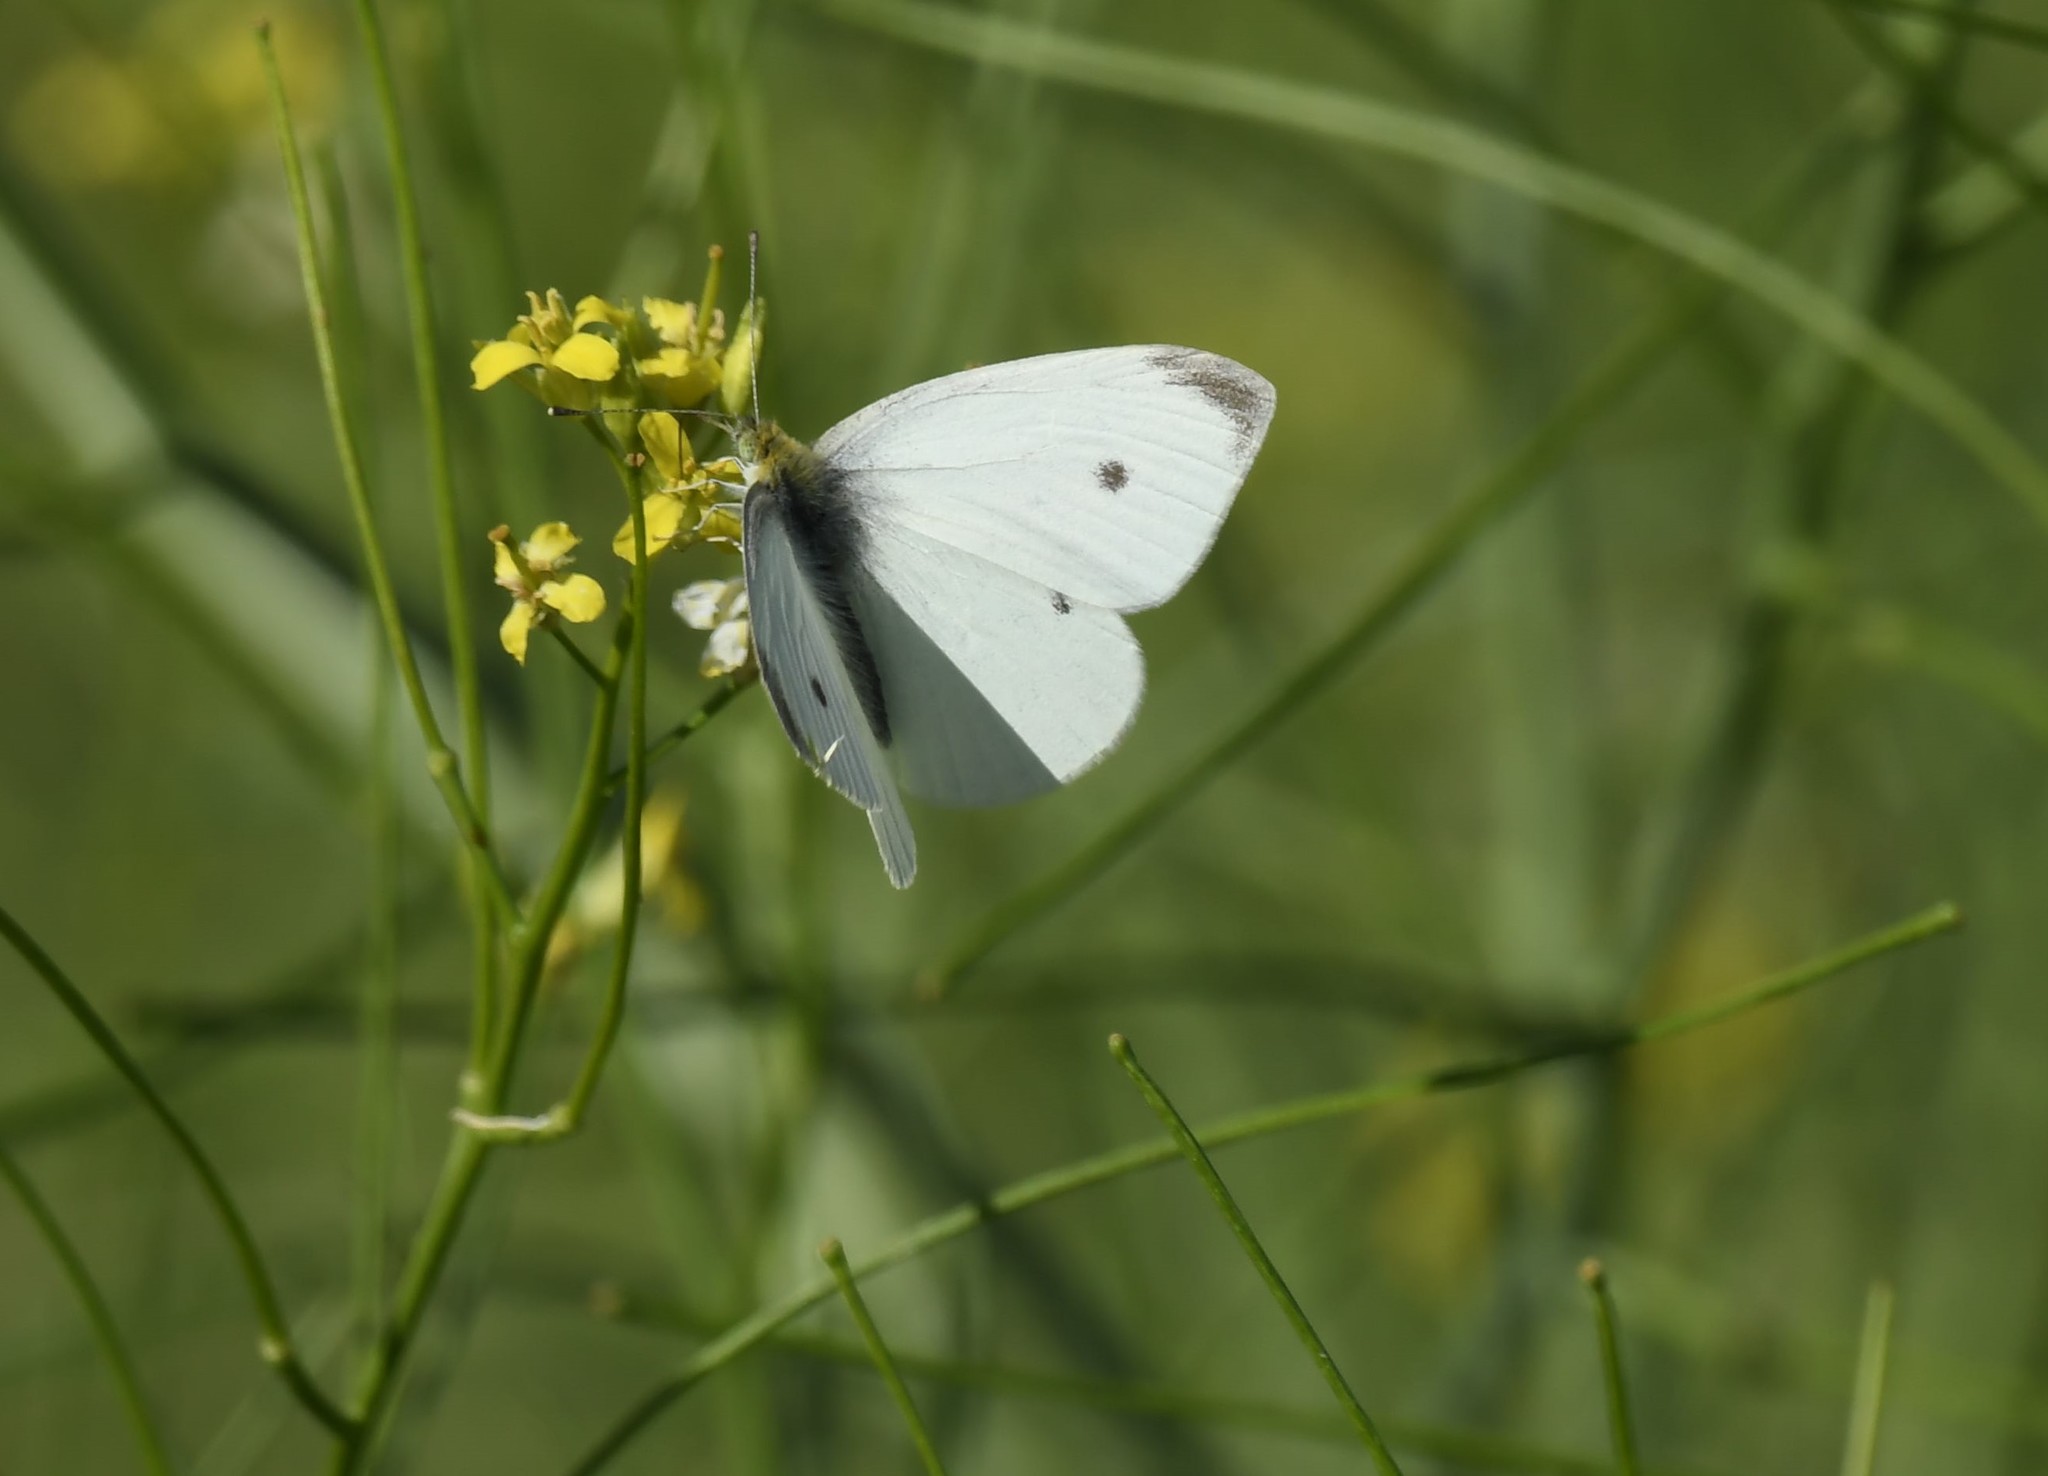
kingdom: Animalia
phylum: Arthropoda
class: Insecta
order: Lepidoptera
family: Pieridae
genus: Pieris
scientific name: Pieris rapae
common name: Small white
